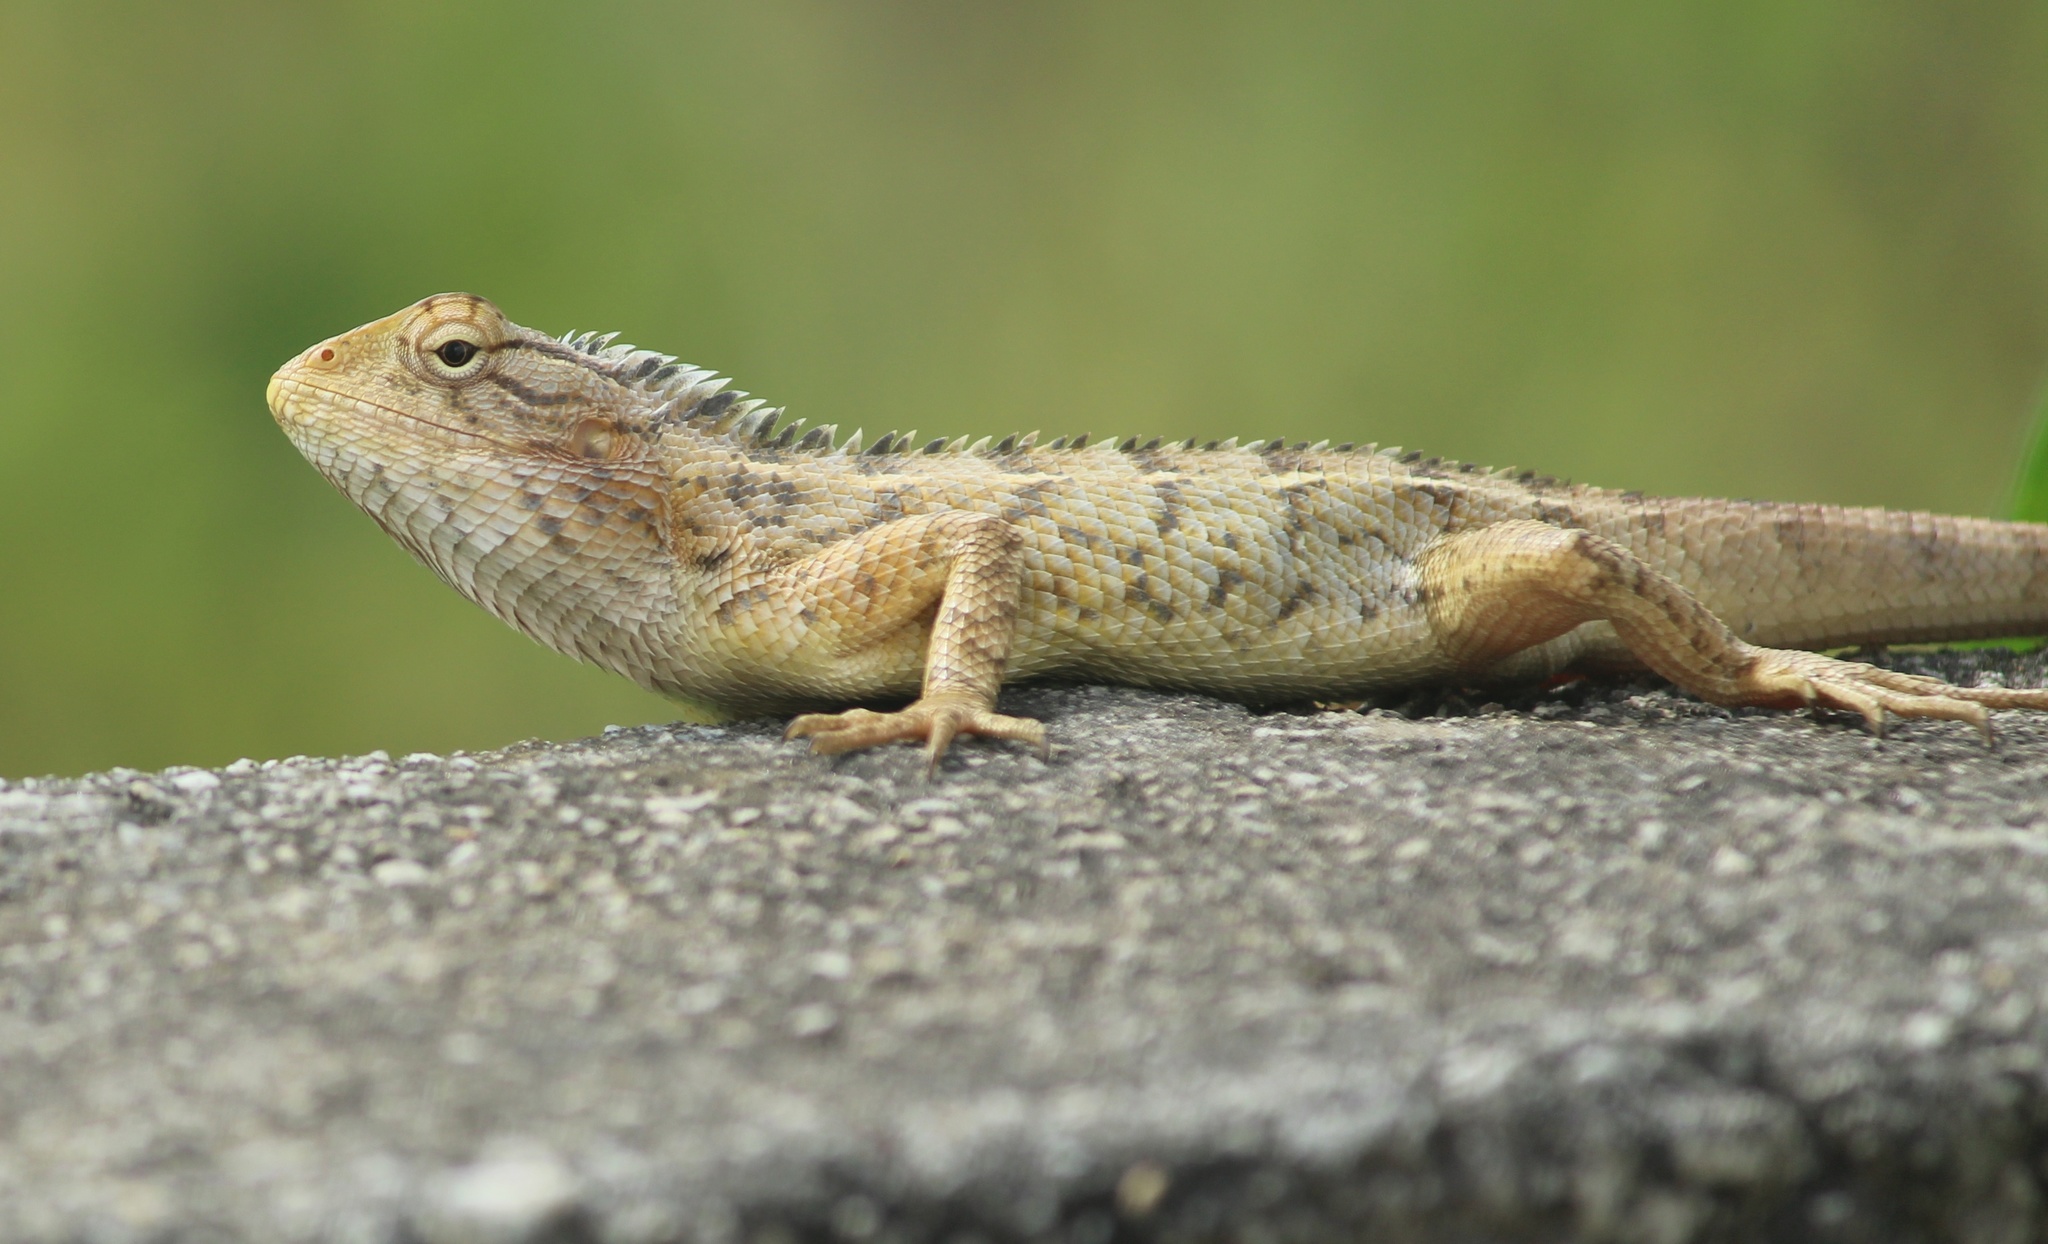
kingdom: Animalia
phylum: Chordata
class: Squamata
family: Agamidae
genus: Calotes
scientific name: Calotes versicolor
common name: Oriental garden lizard
